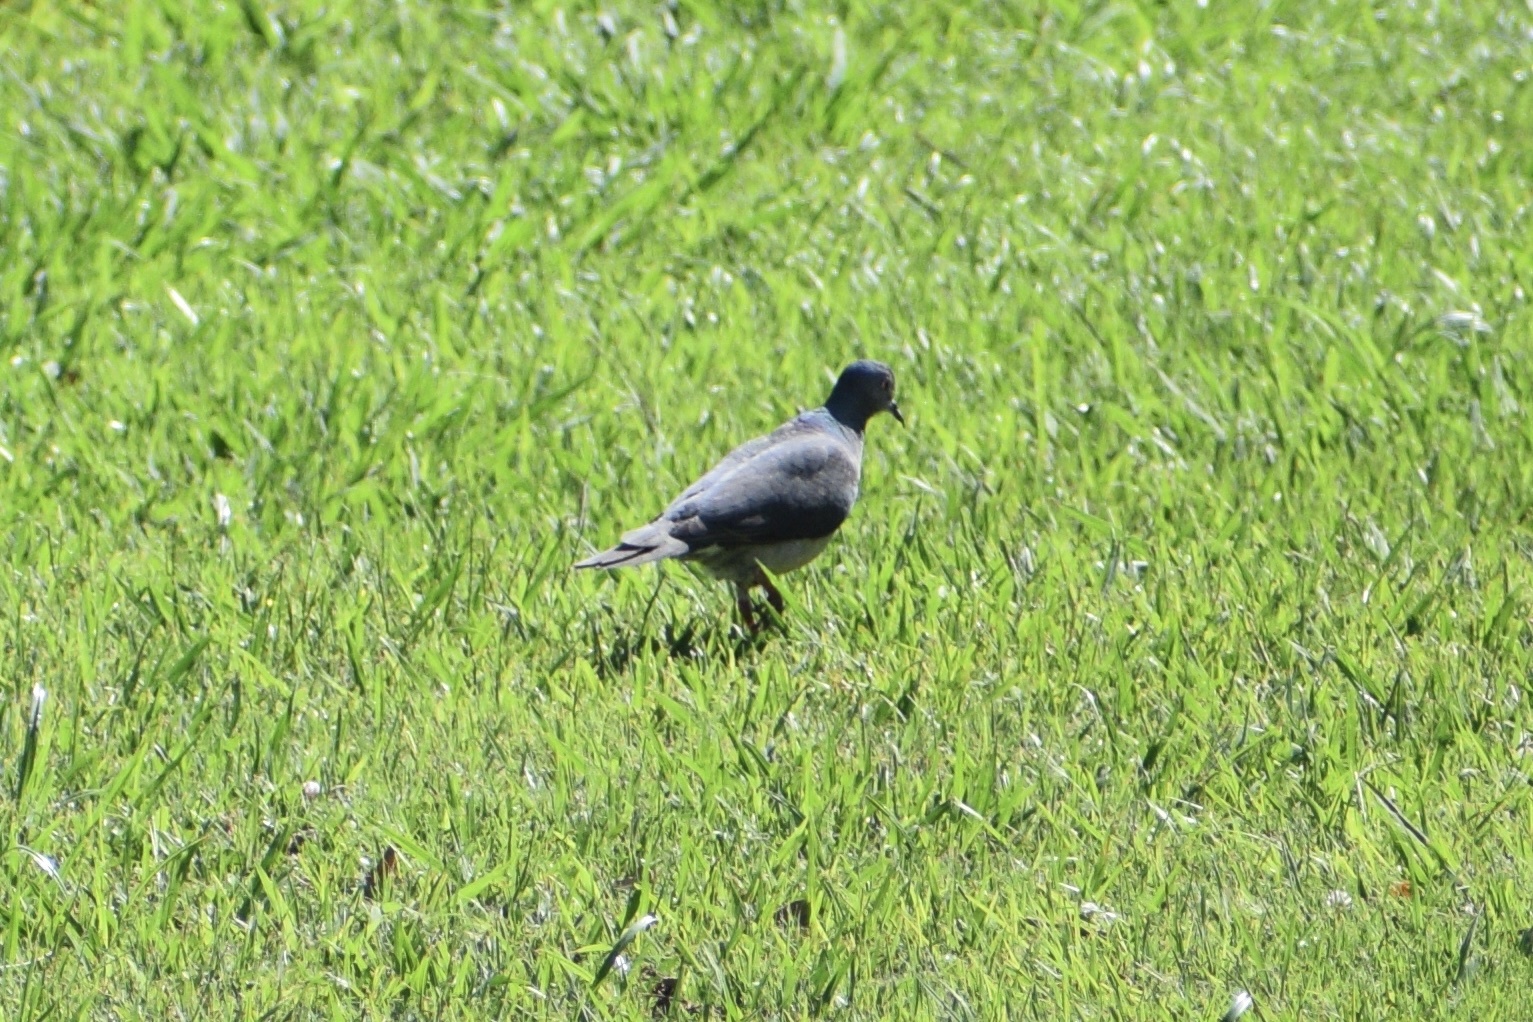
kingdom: Animalia
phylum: Chordata
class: Aves
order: Columbiformes
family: Columbidae
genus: Leptotila
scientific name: Leptotila verreauxi
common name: White-tipped dove
